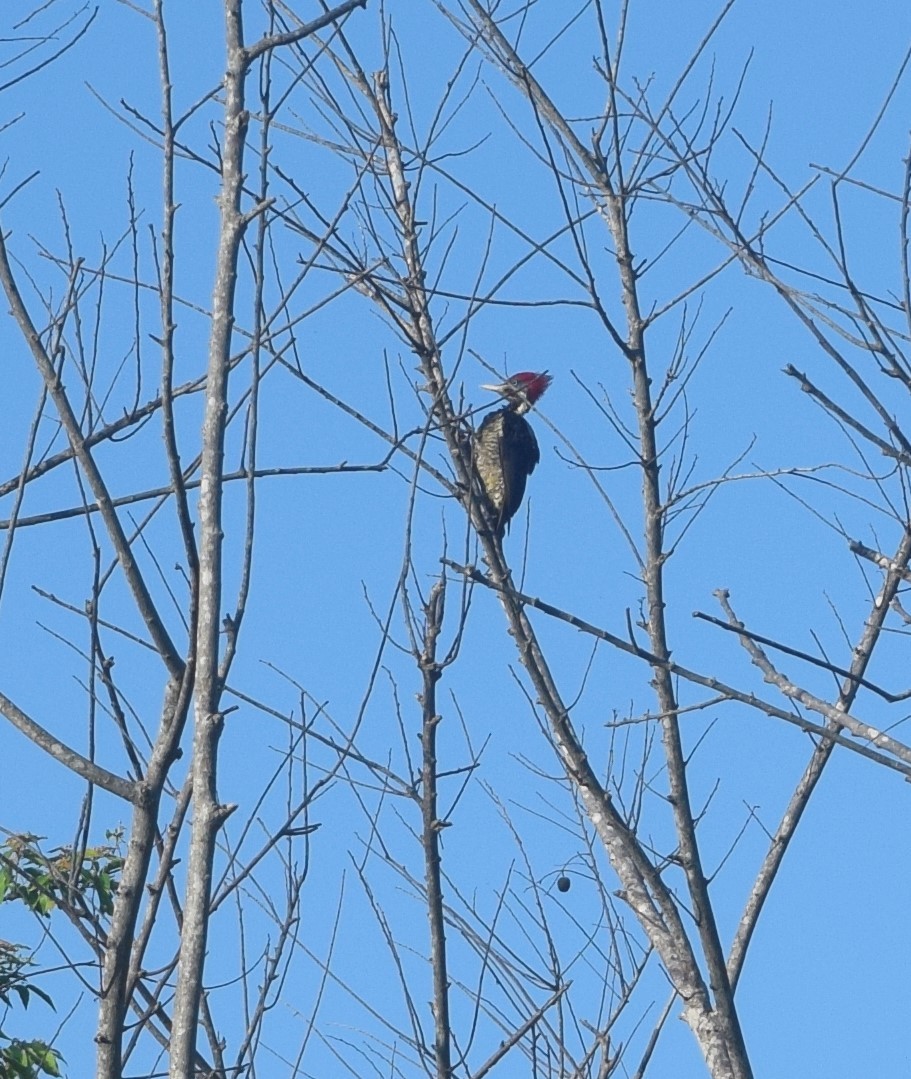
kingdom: Animalia
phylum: Chordata
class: Aves
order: Piciformes
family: Picidae
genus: Dryocopus
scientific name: Dryocopus lineatus
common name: Lineated woodpecker
